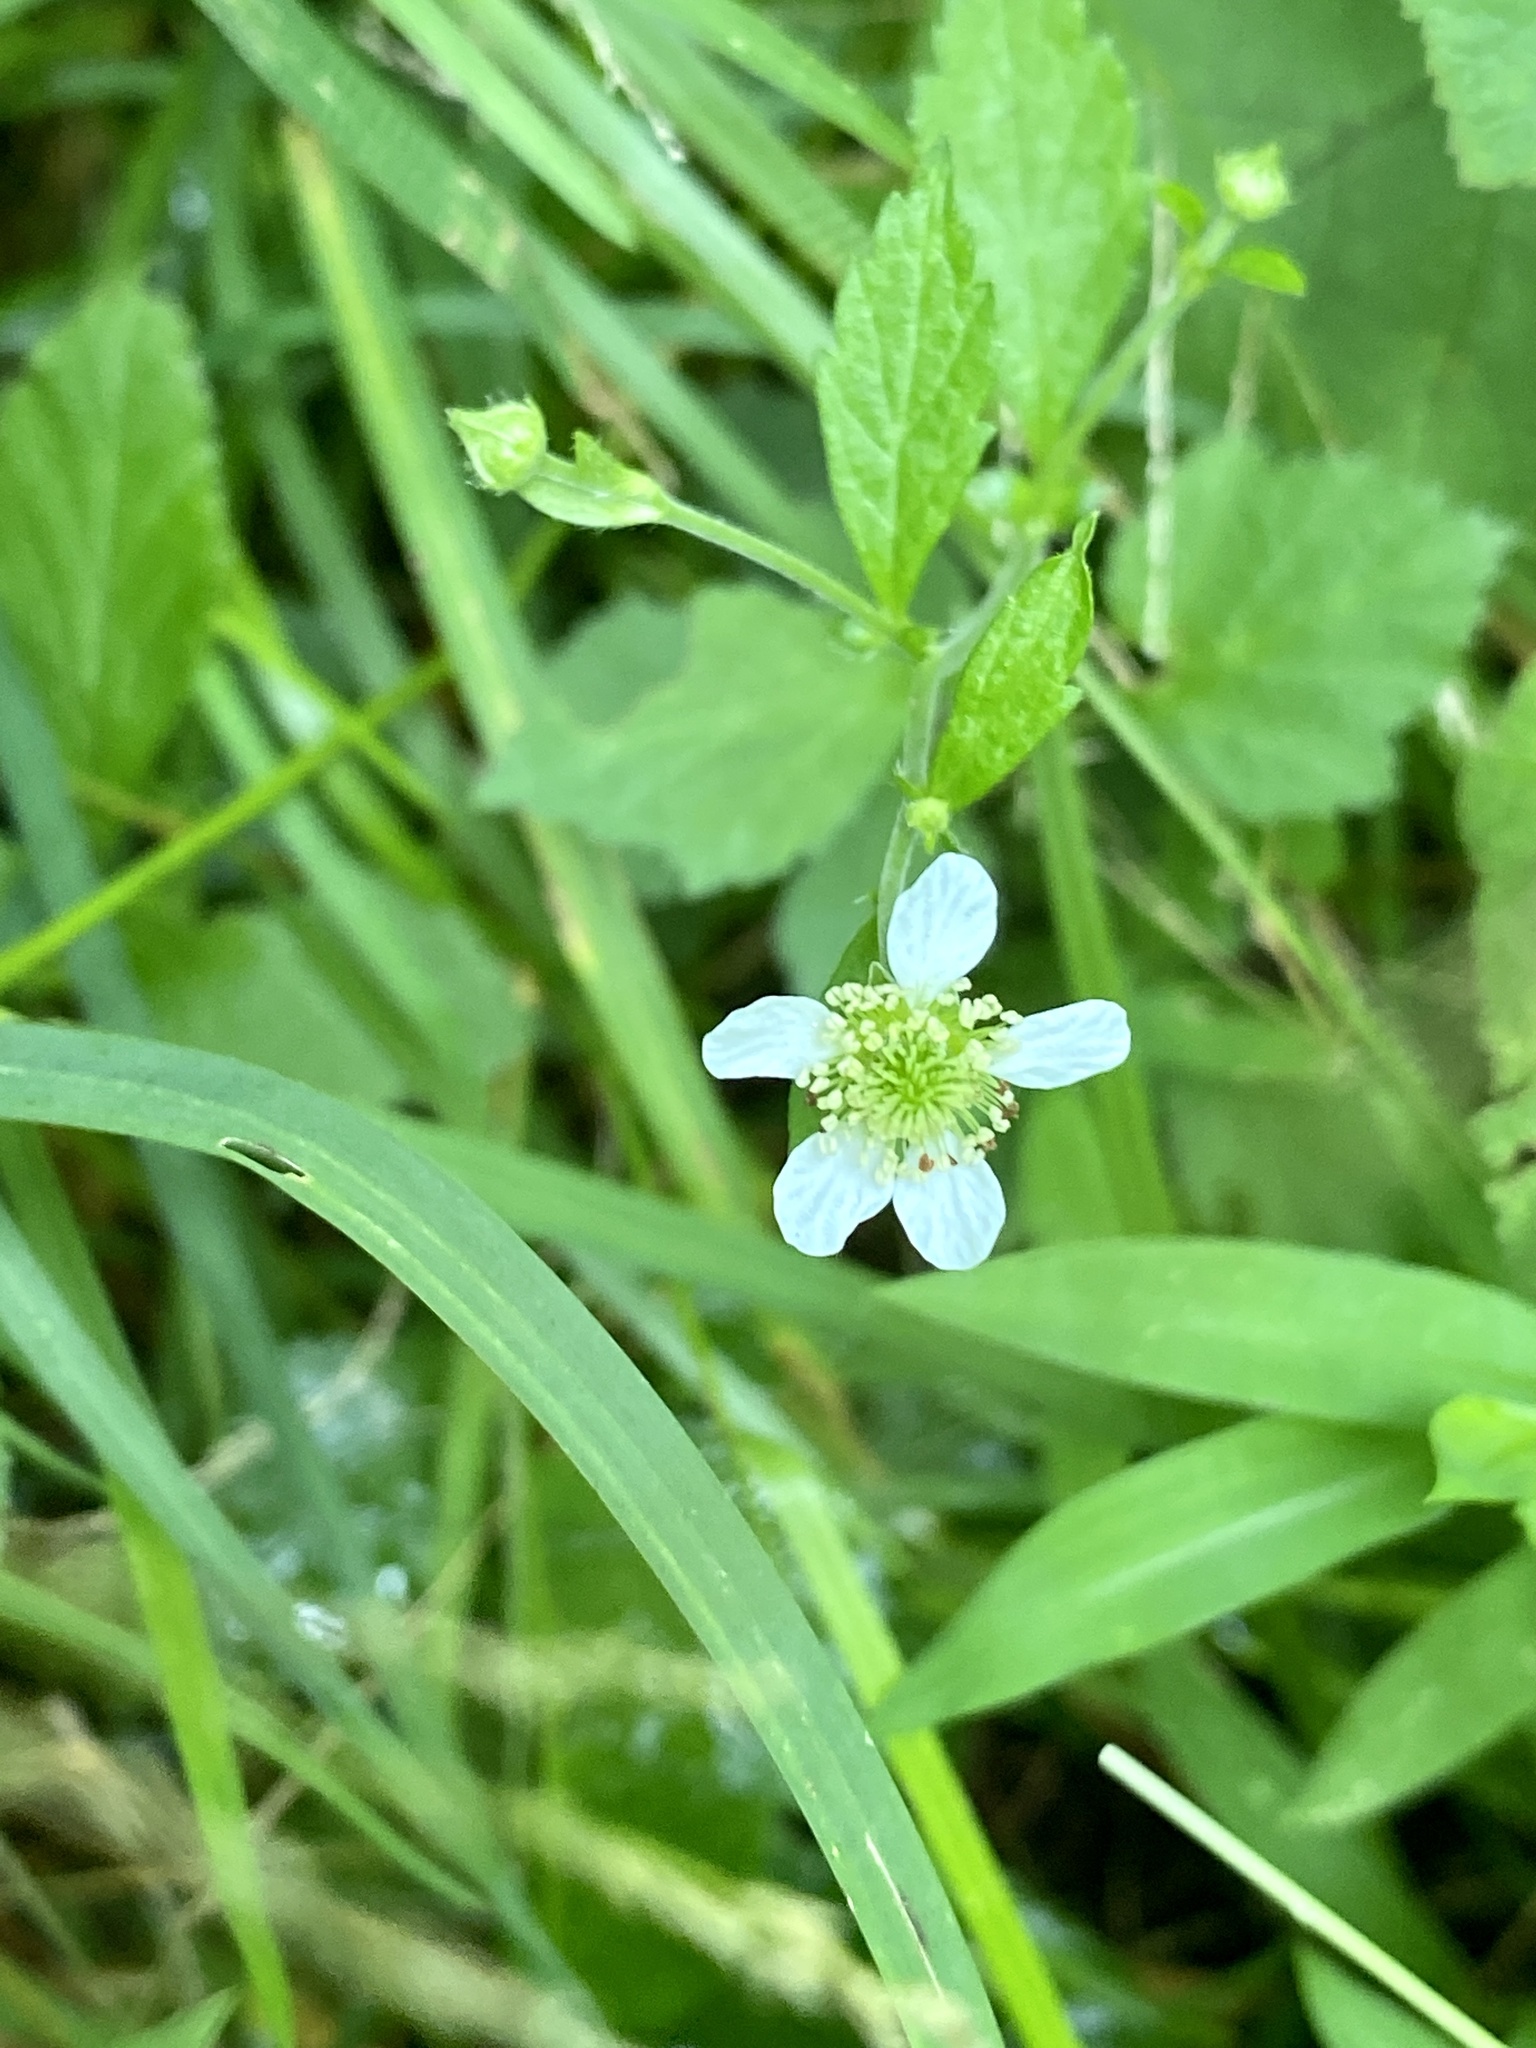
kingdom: Plantae
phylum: Tracheophyta
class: Magnoliopsida
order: Rosales
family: Rosaceae
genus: Geum
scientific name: Geum canadense
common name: White avens
